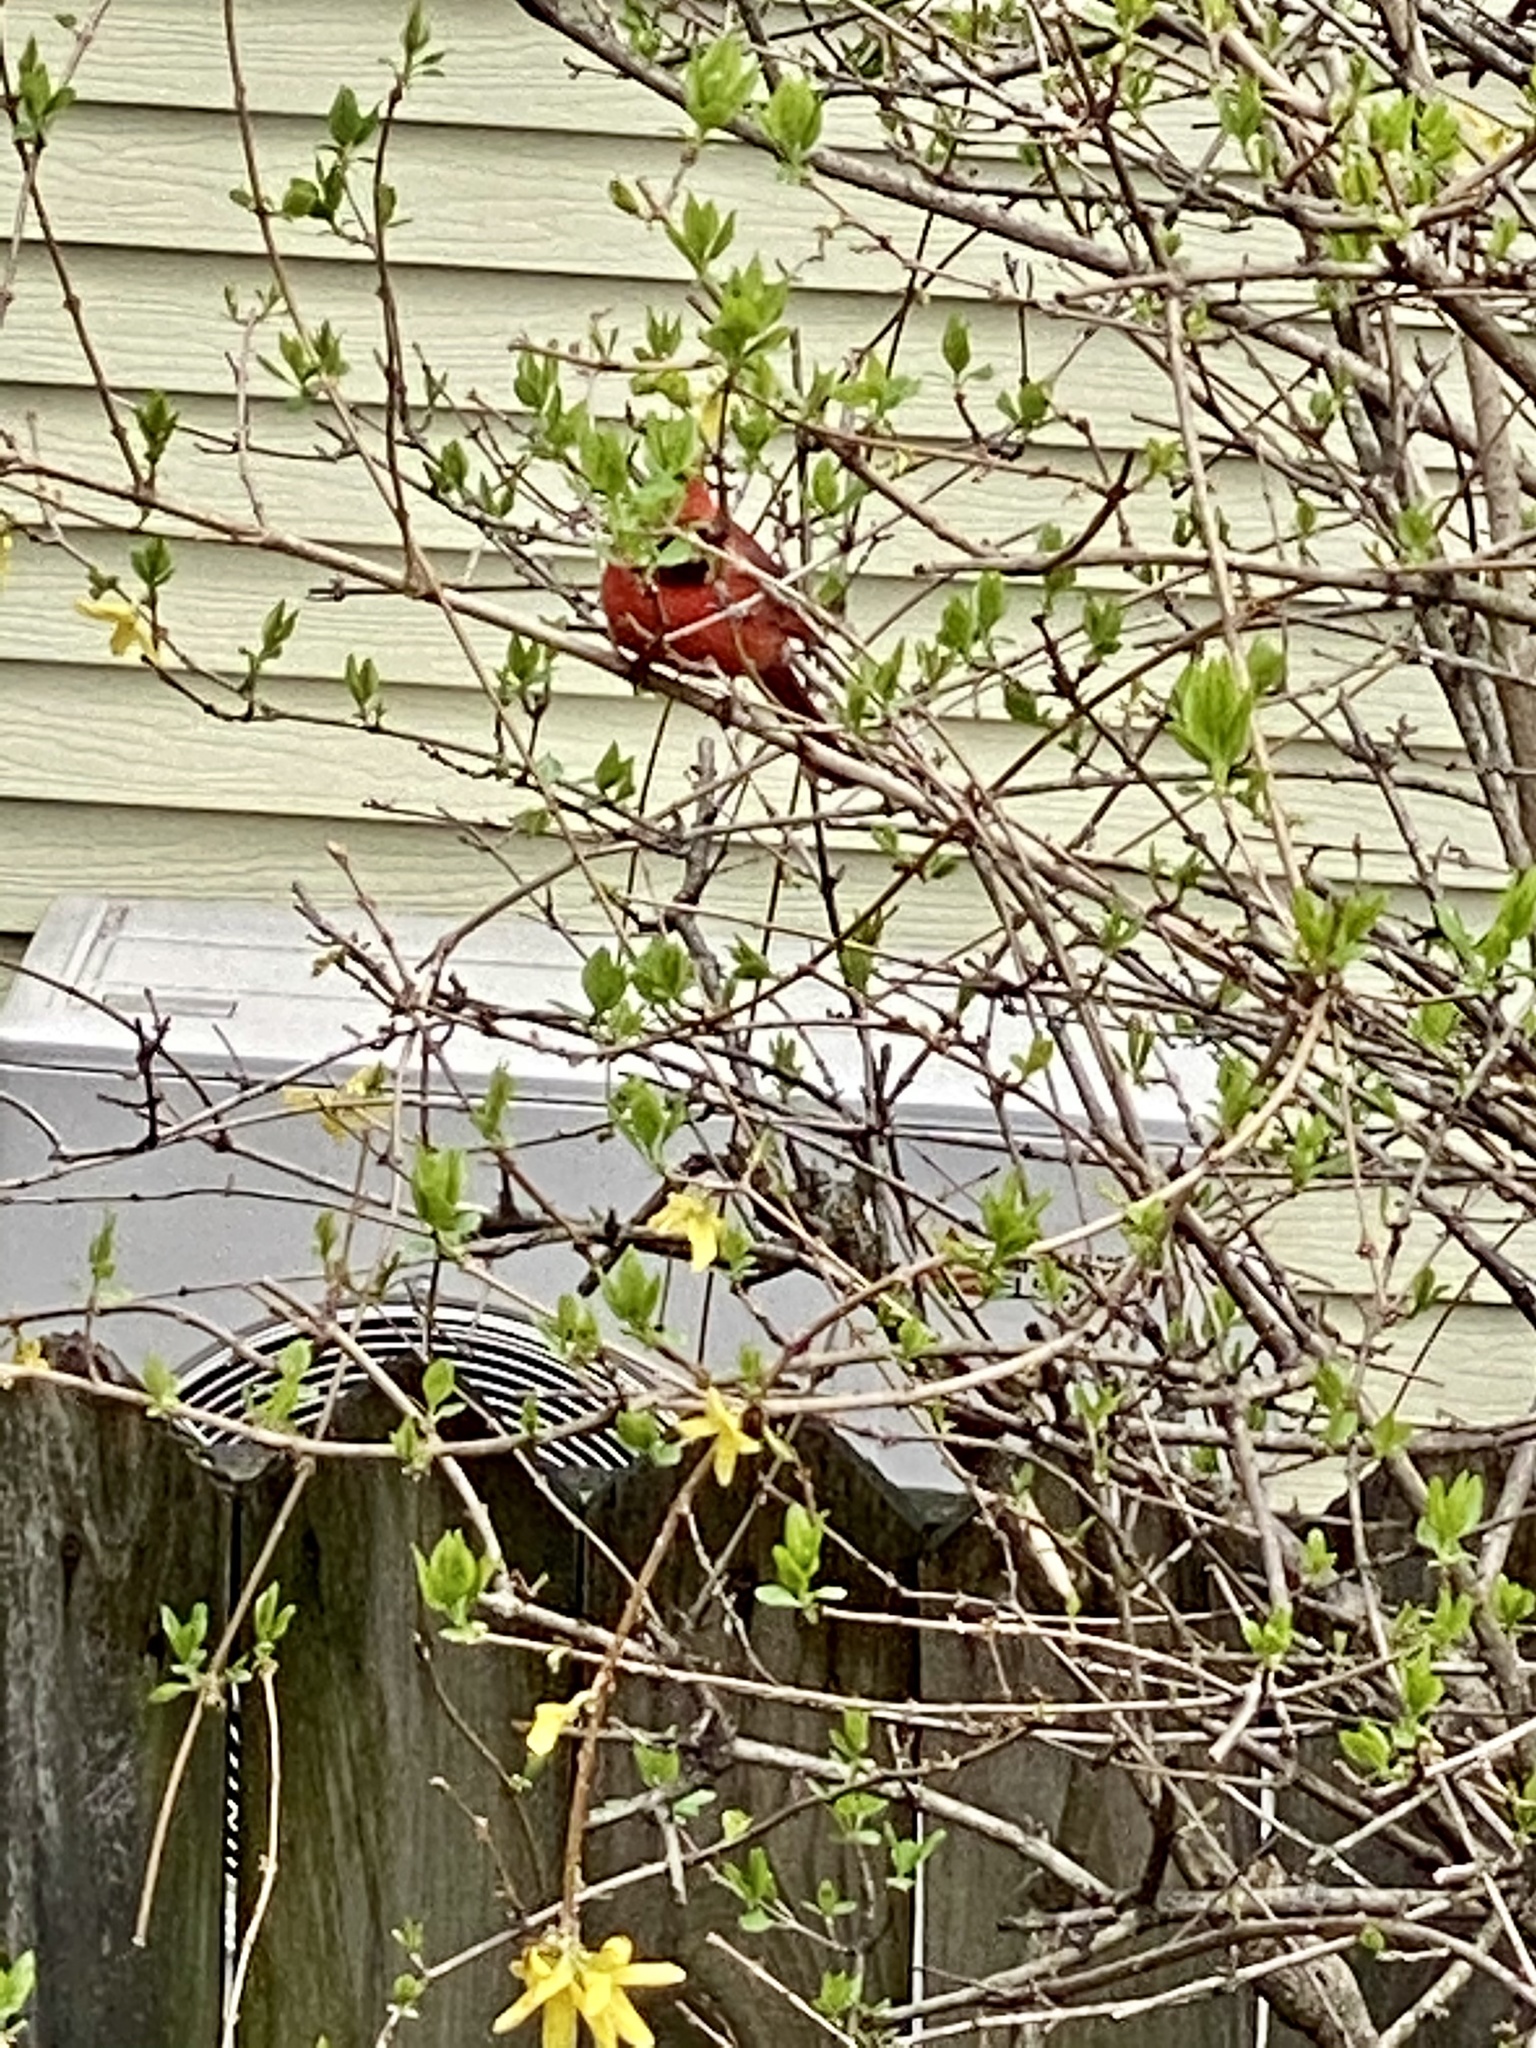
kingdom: Animalia
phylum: Chordata
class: Aves
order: Passeriformes
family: Cardinalidae
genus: Cardinalis
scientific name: Cardinalis cardinalis
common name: Northern cardinal
